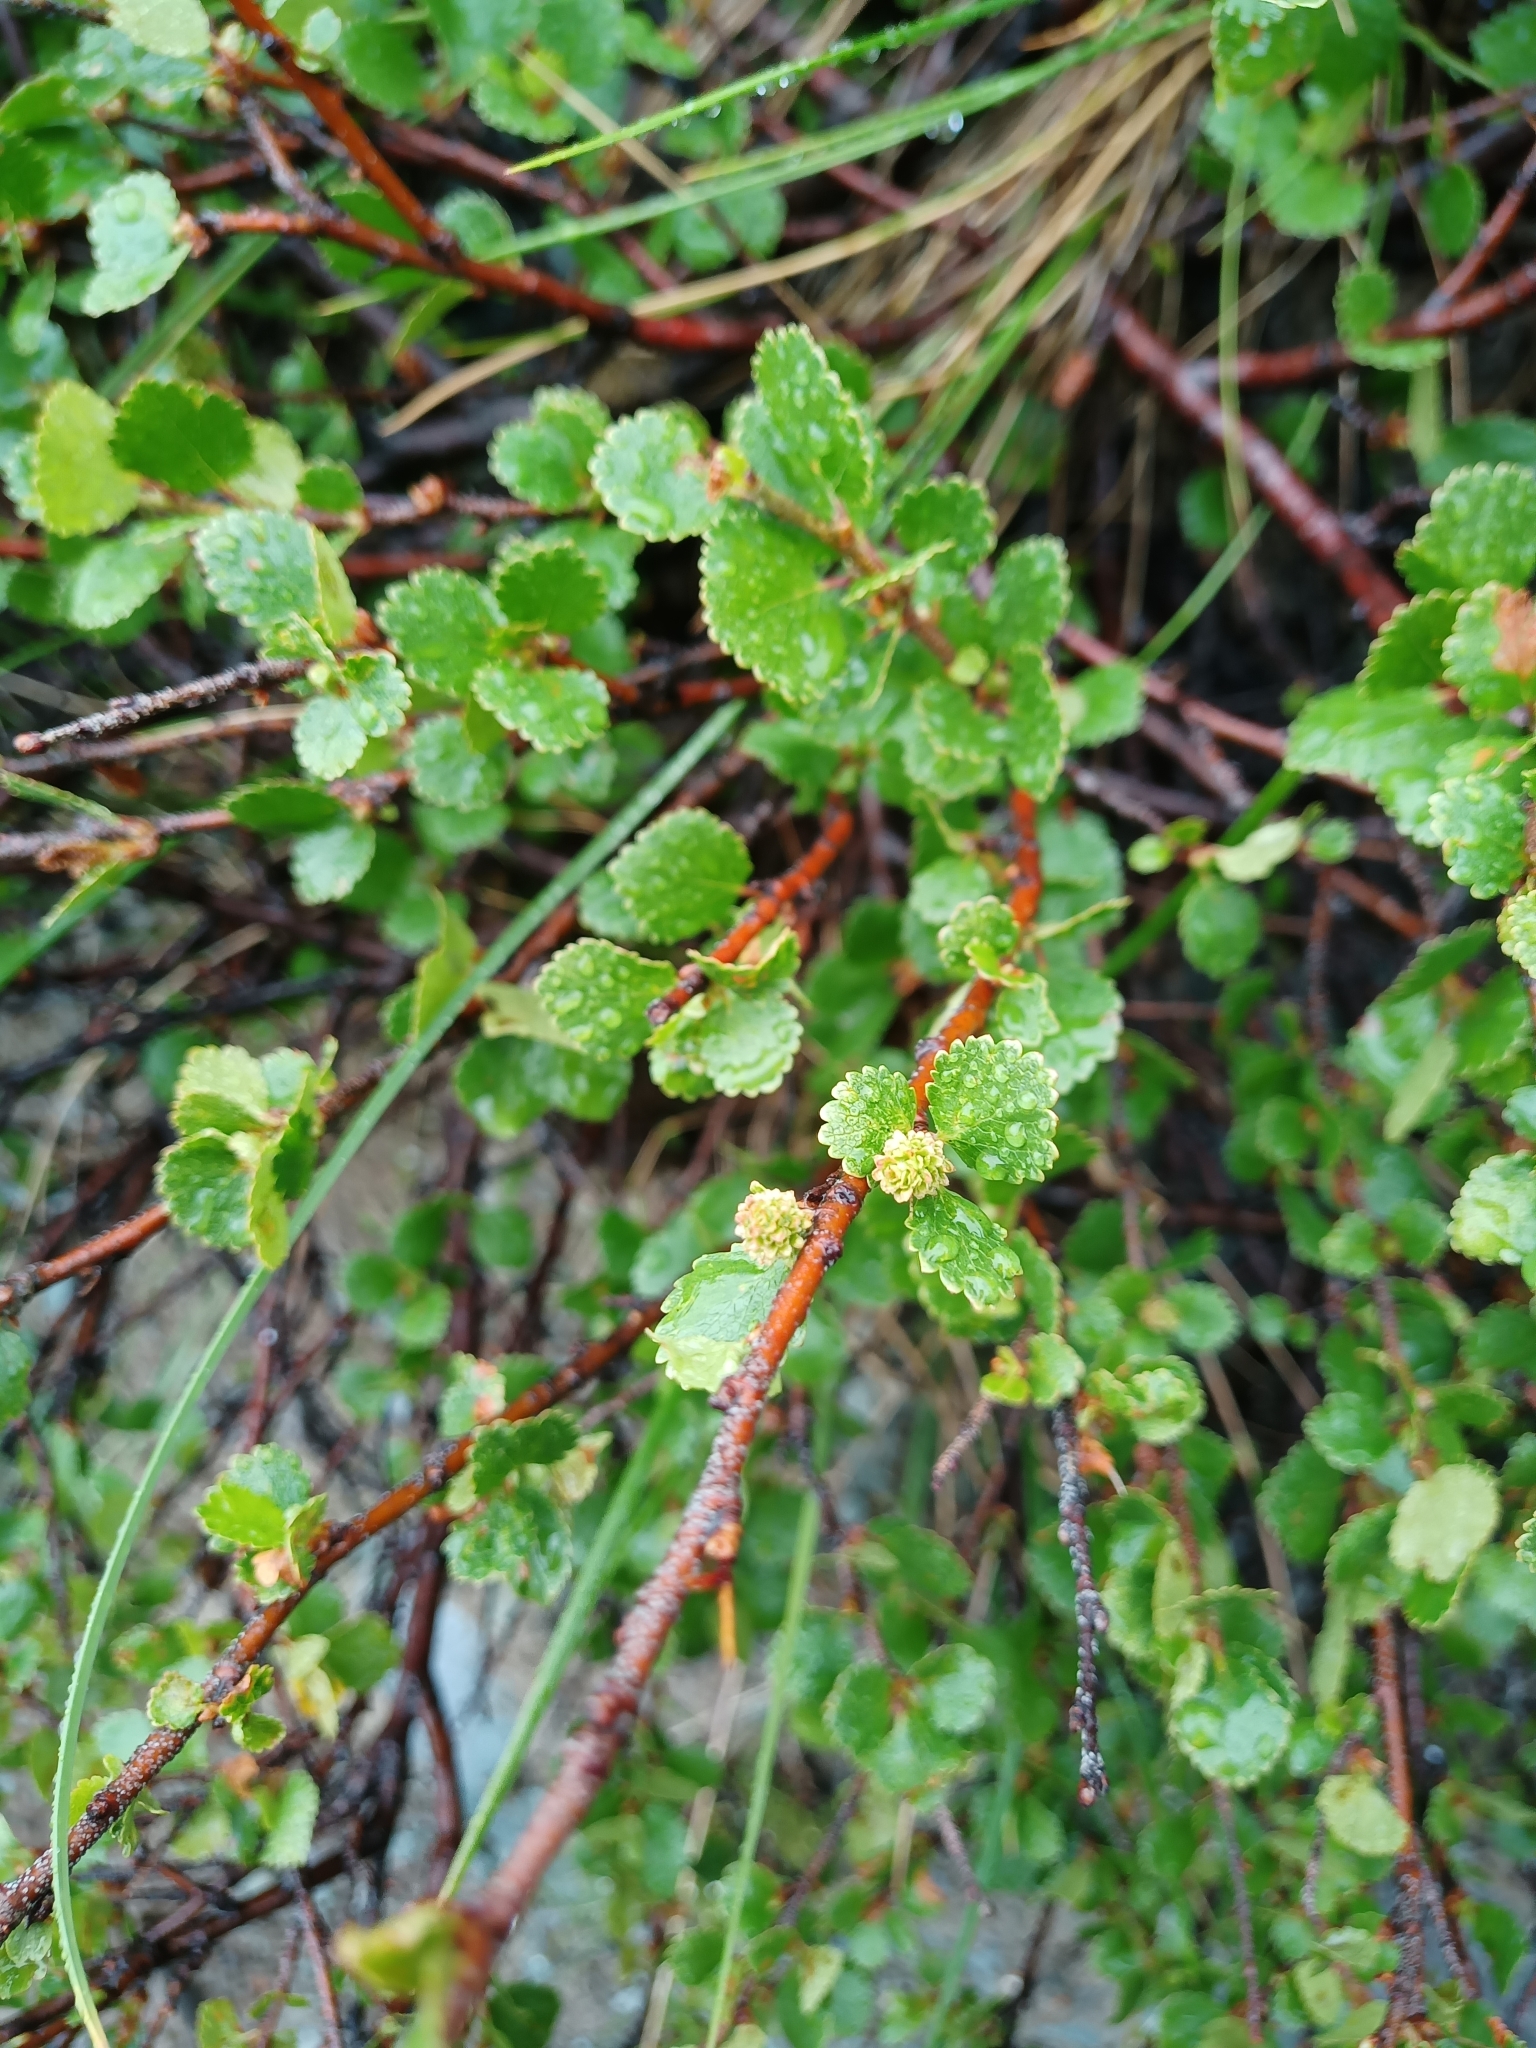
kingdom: Plantae
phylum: Tracheophyta
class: Magnoliopsida
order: Fagales
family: Betulaceae
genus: Betula
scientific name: Betula nana
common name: Arctic dwarf birch
